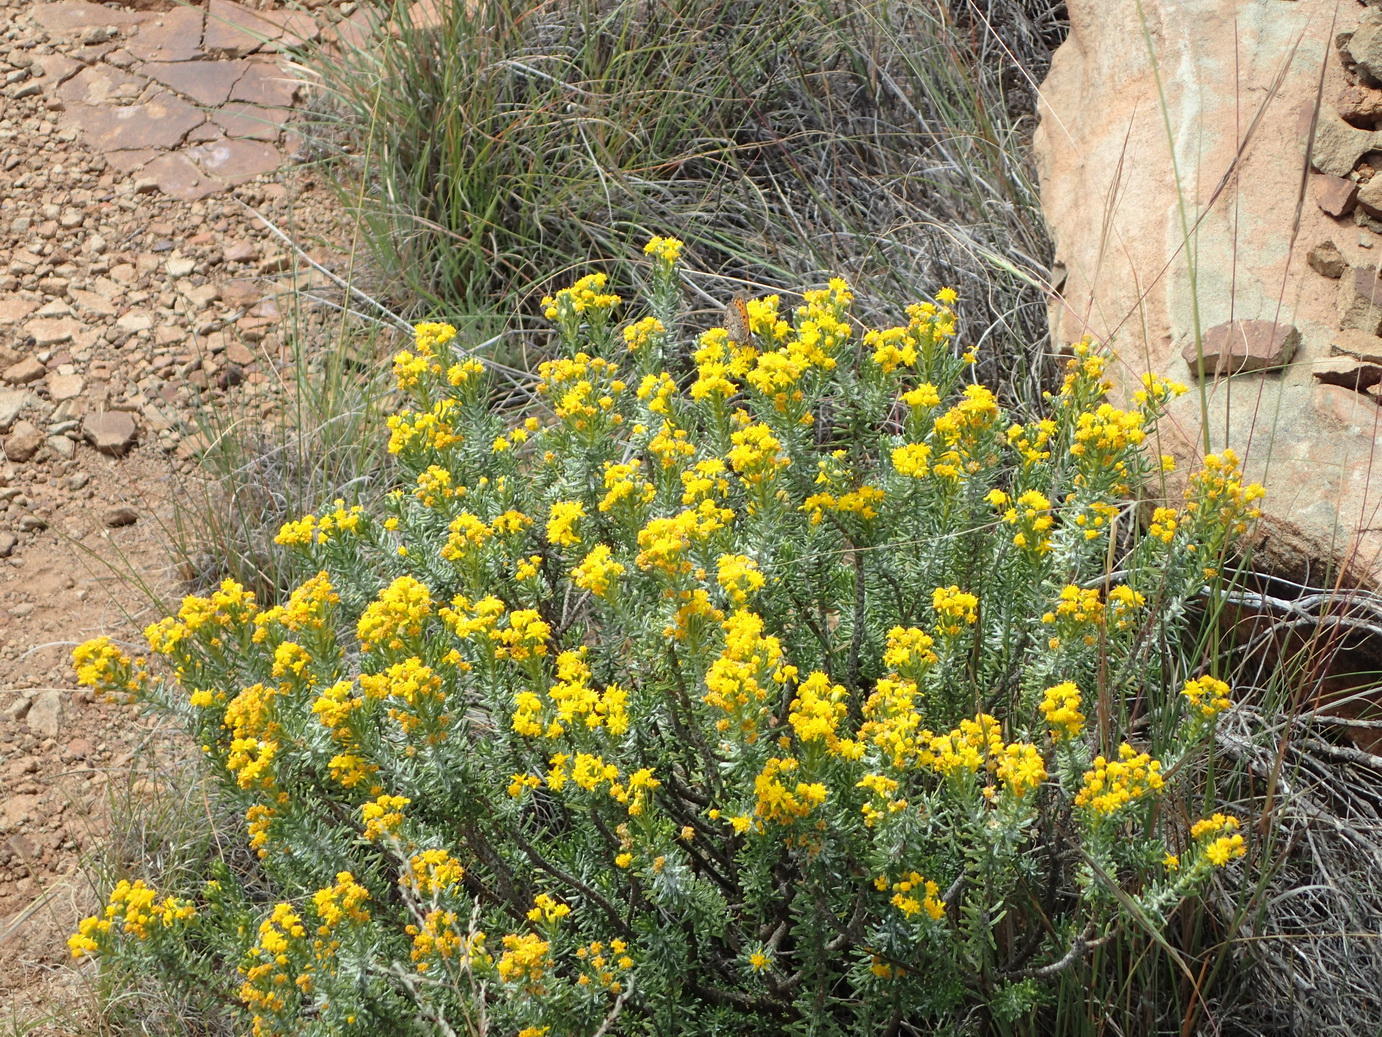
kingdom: Plantae
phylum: Tracheophyta
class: Magnoliopsida
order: Asterales
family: Asteraceae
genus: Euryops
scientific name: Euryops floribundus
